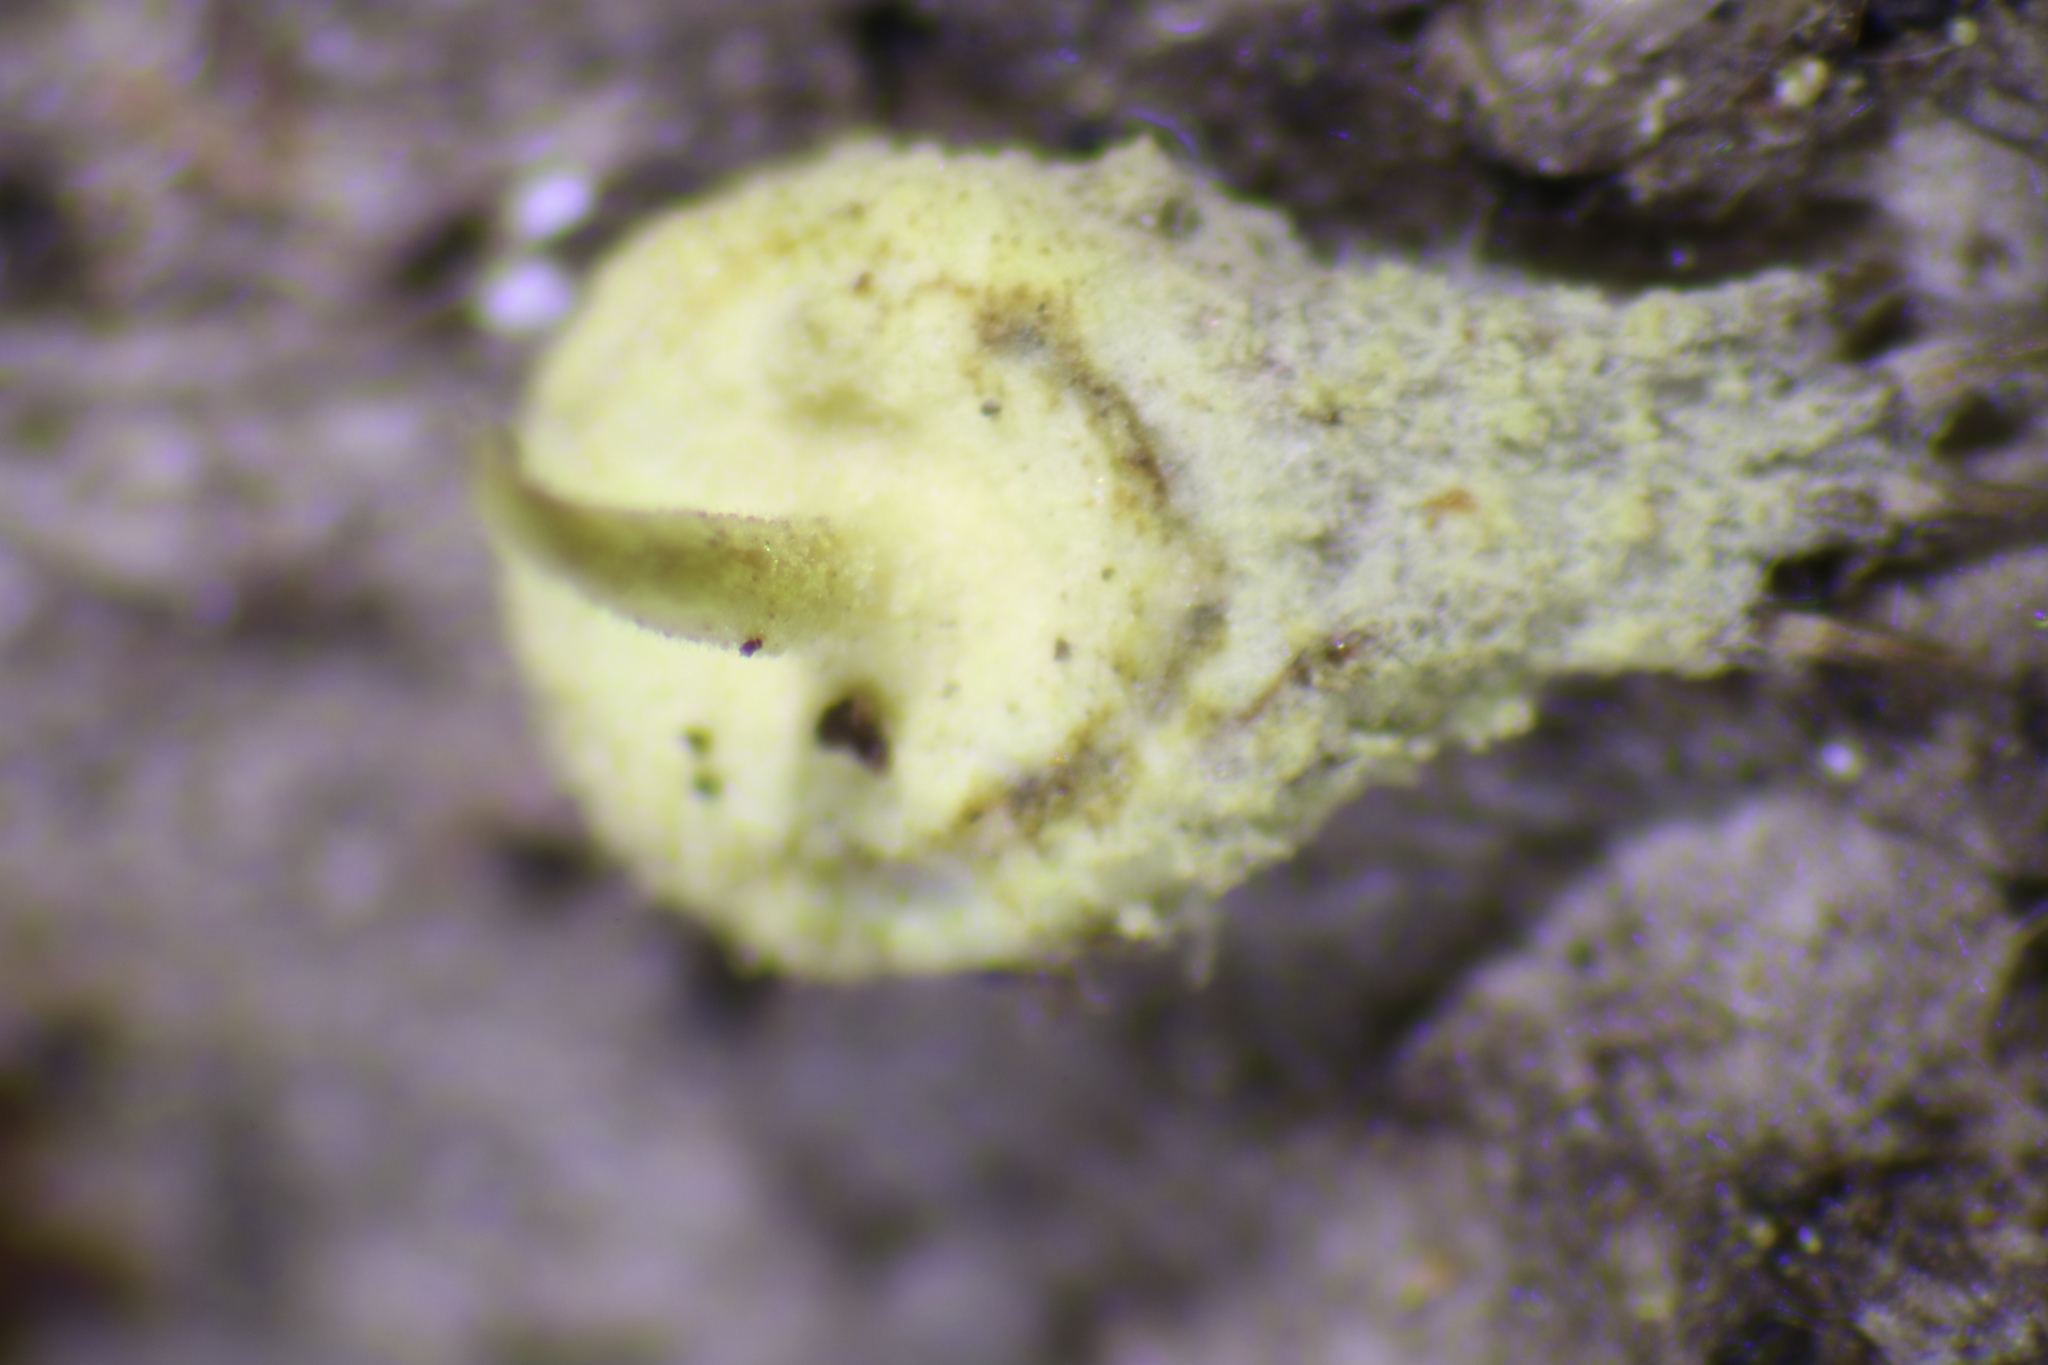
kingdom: Fungi
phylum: Ascomycota
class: Sordariomycetes
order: Hypocreales
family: Cordycipitaceae
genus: Gibellula
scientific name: Gibellula arachnophila
